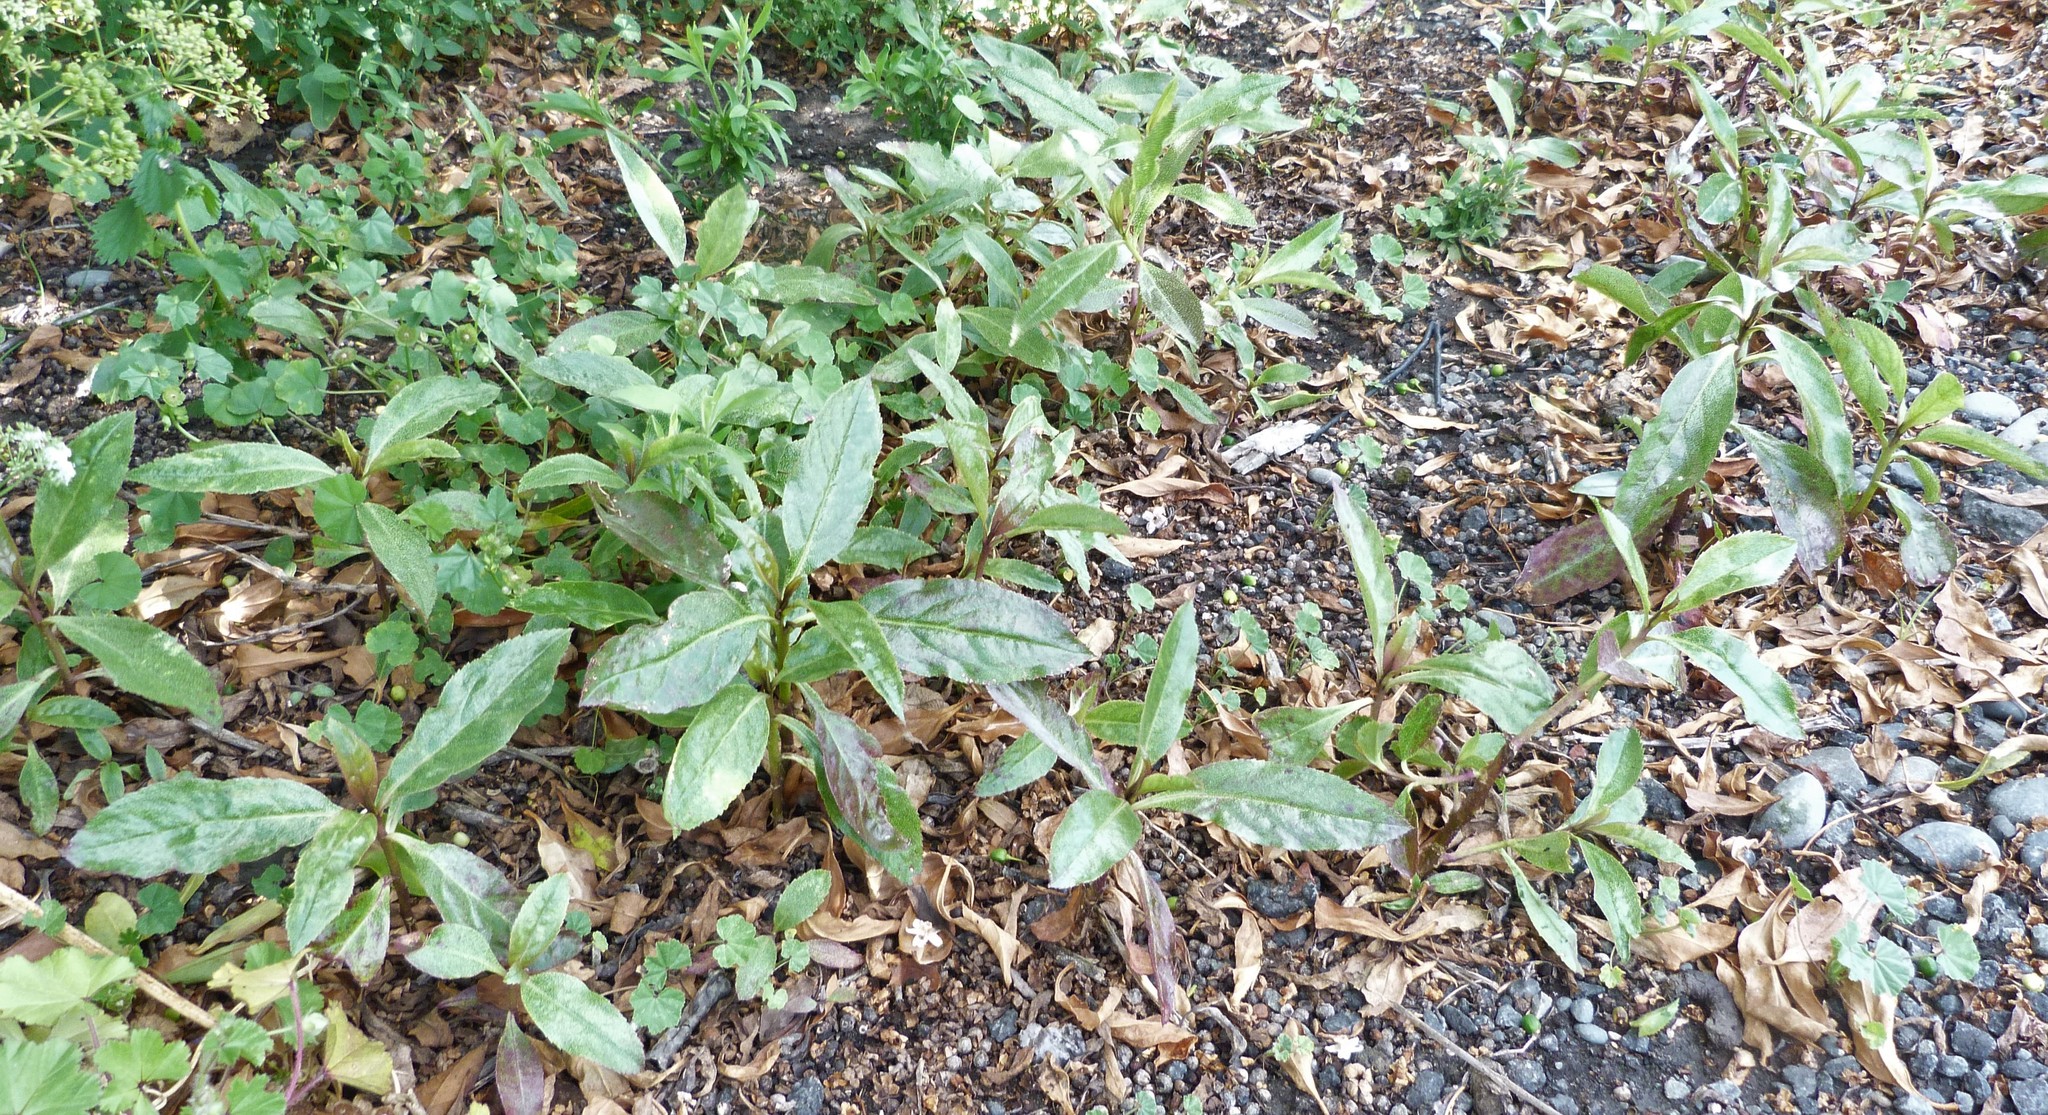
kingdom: Plantae
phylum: Tracheophyta
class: Magnoliopsida
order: Lamiales
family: Scrophulariaceae
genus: Myoporum
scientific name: Myoporum laetum
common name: Ngaio tree
